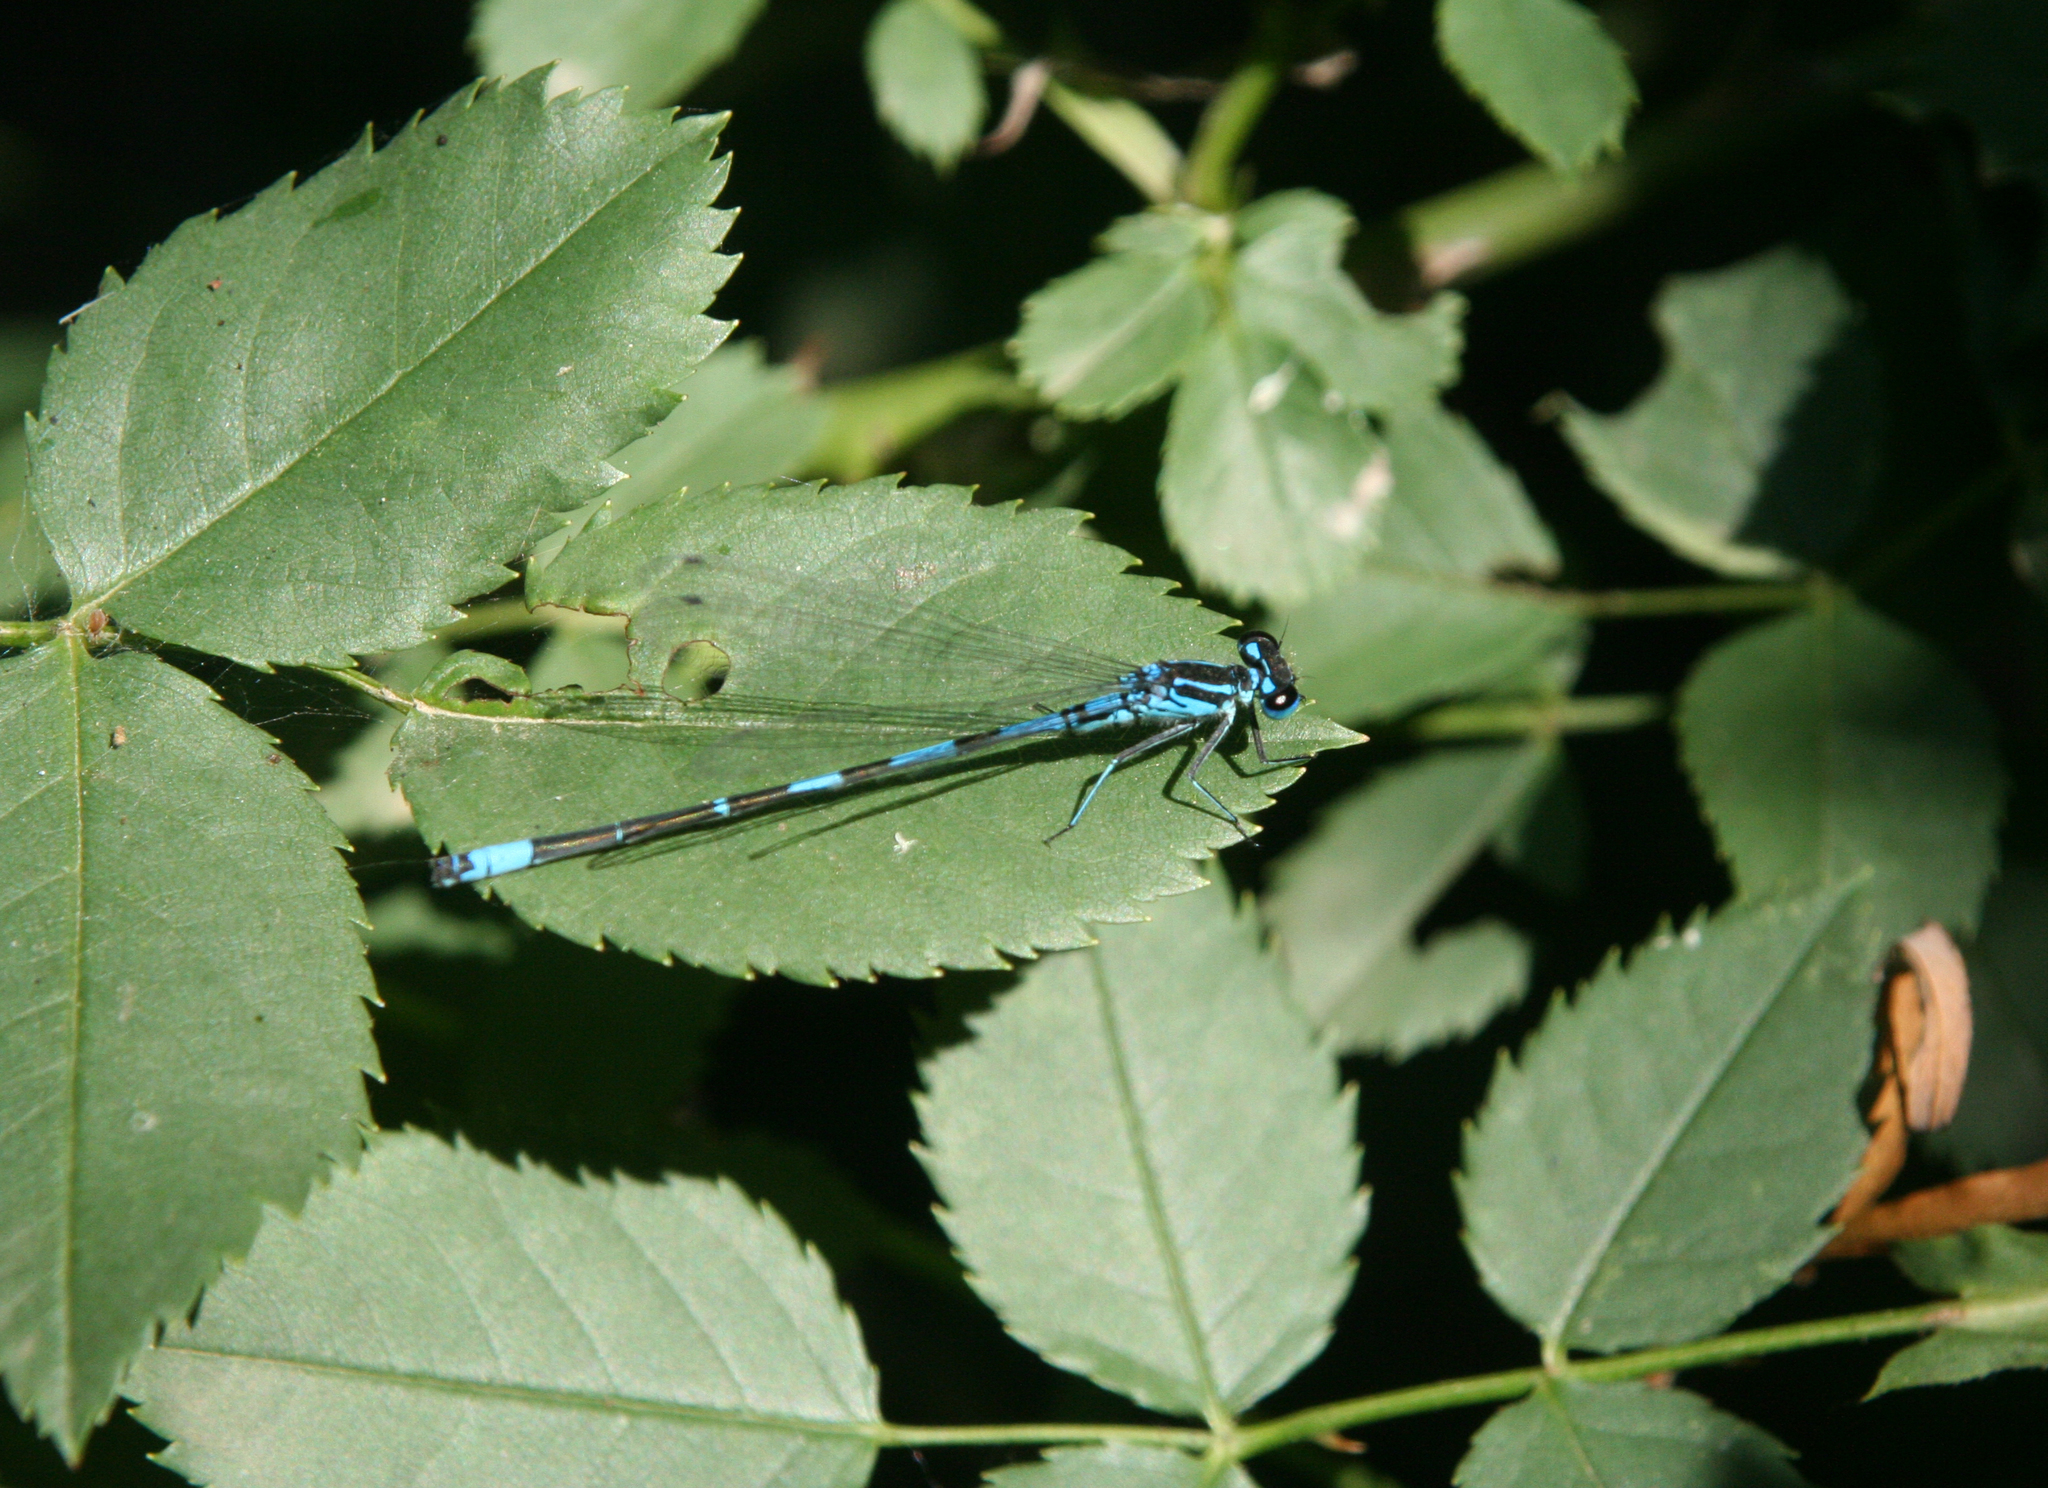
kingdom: Animalia
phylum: Arthropoda
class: Insecta
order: Odonata
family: Coenagrionidae
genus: Coenagrion
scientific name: Coenagrion ponticum
